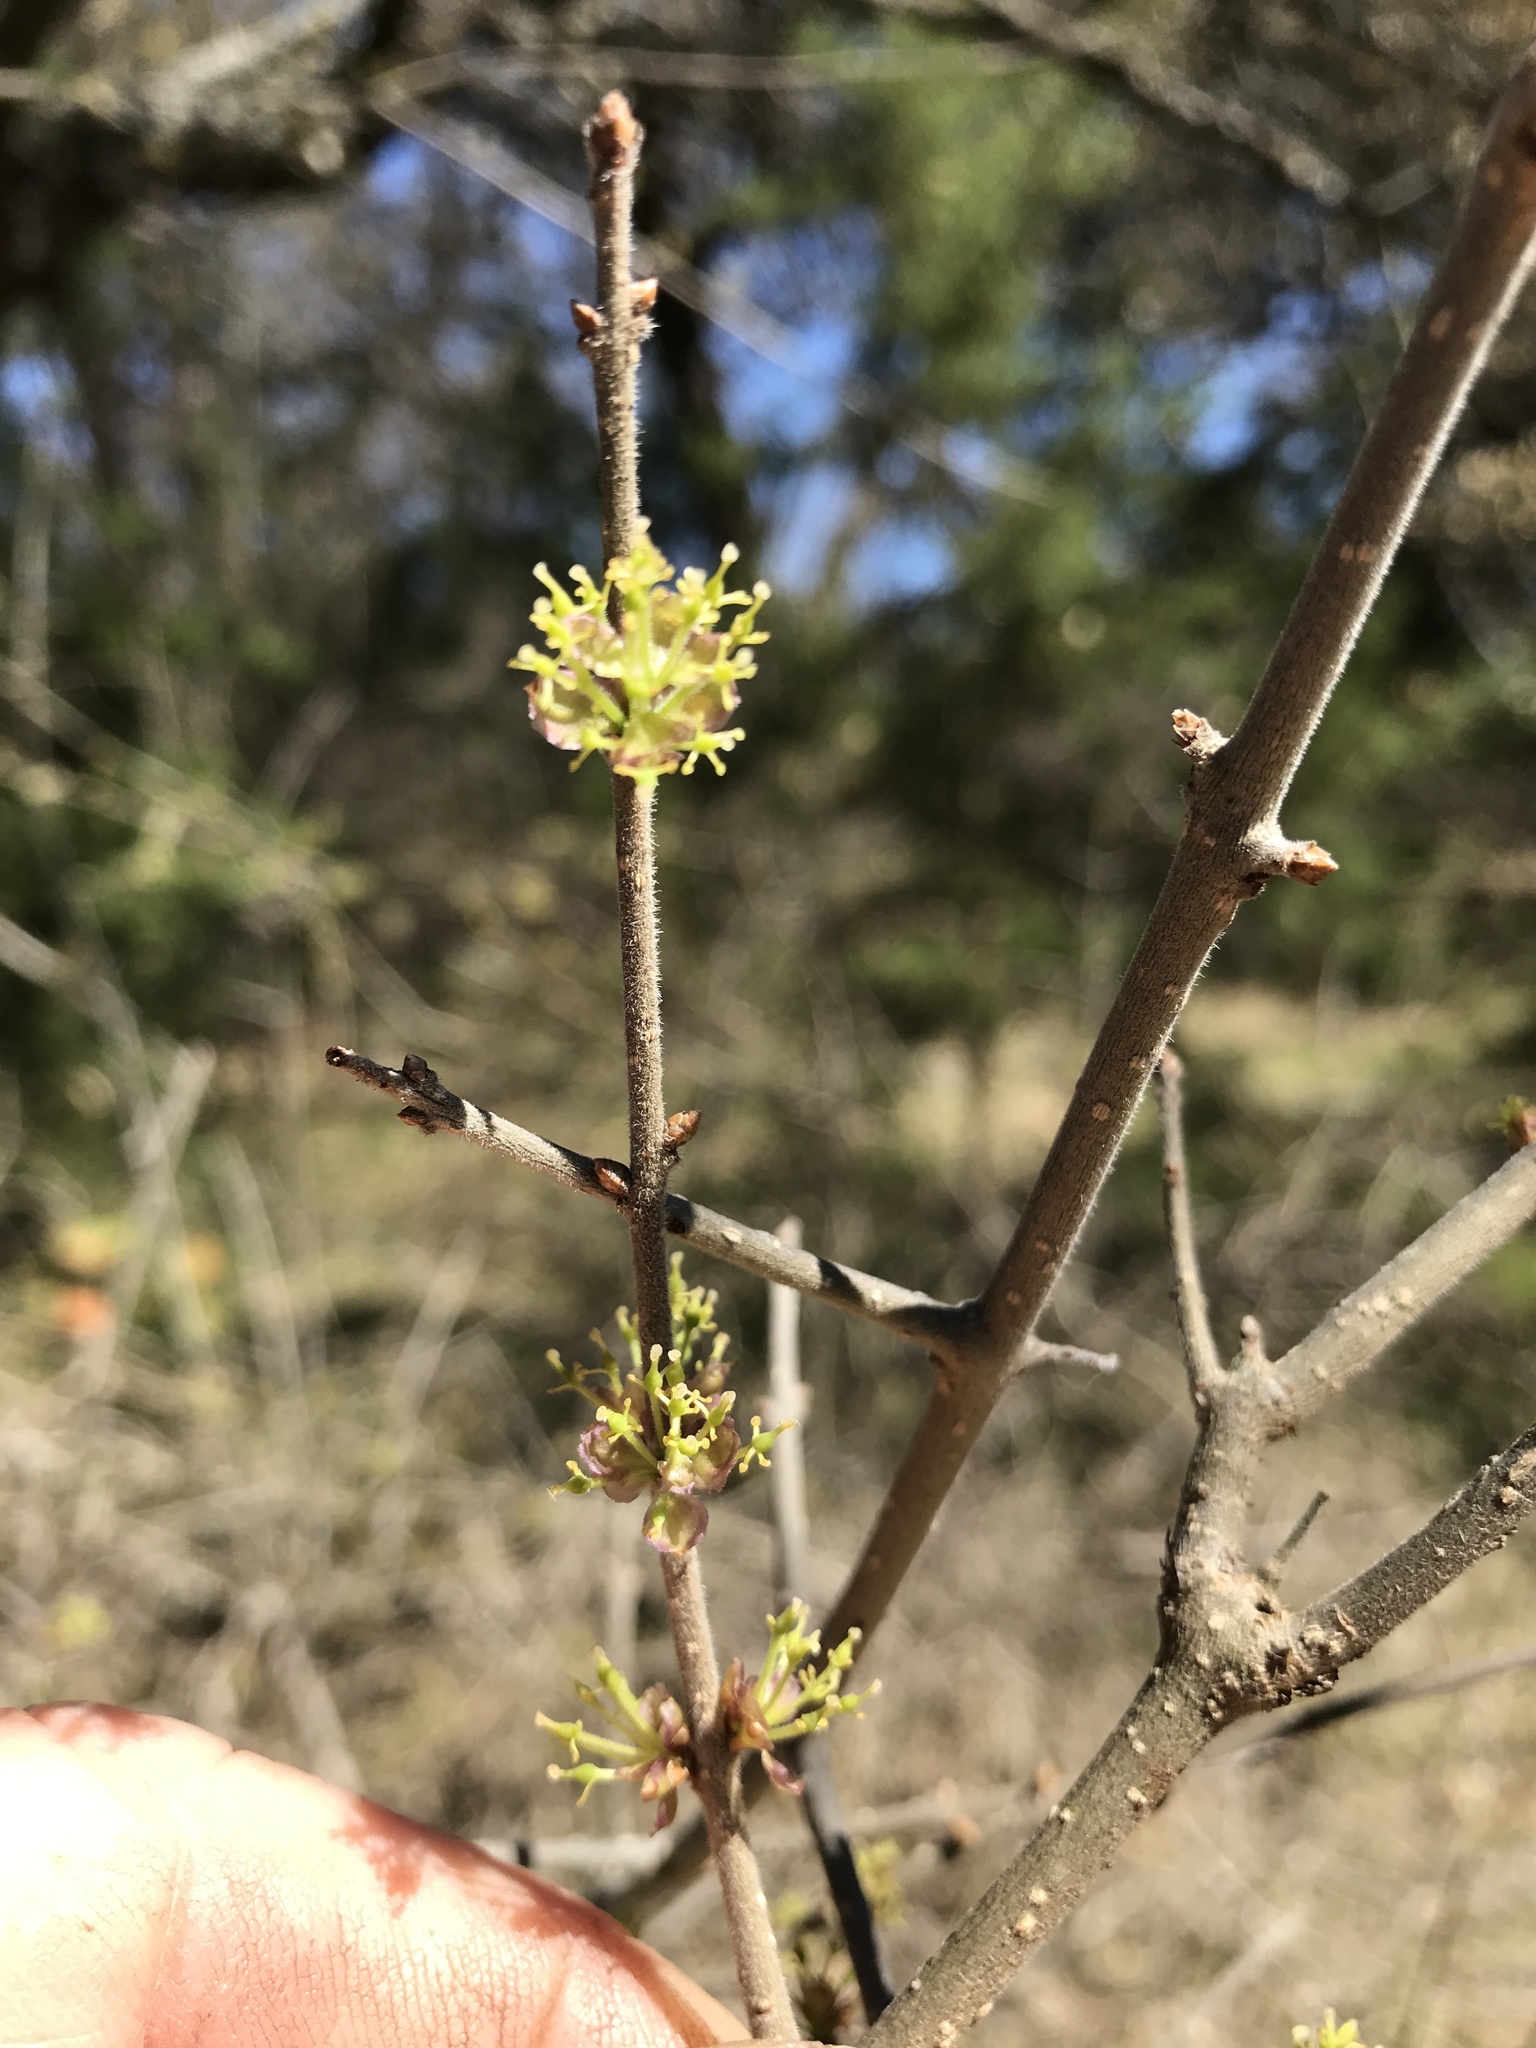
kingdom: Plantae
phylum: Tracheophyta
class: Magnoliopsida
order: Lamiales
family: Oleaceae
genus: Forestiera
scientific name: Forestiera pubescens
